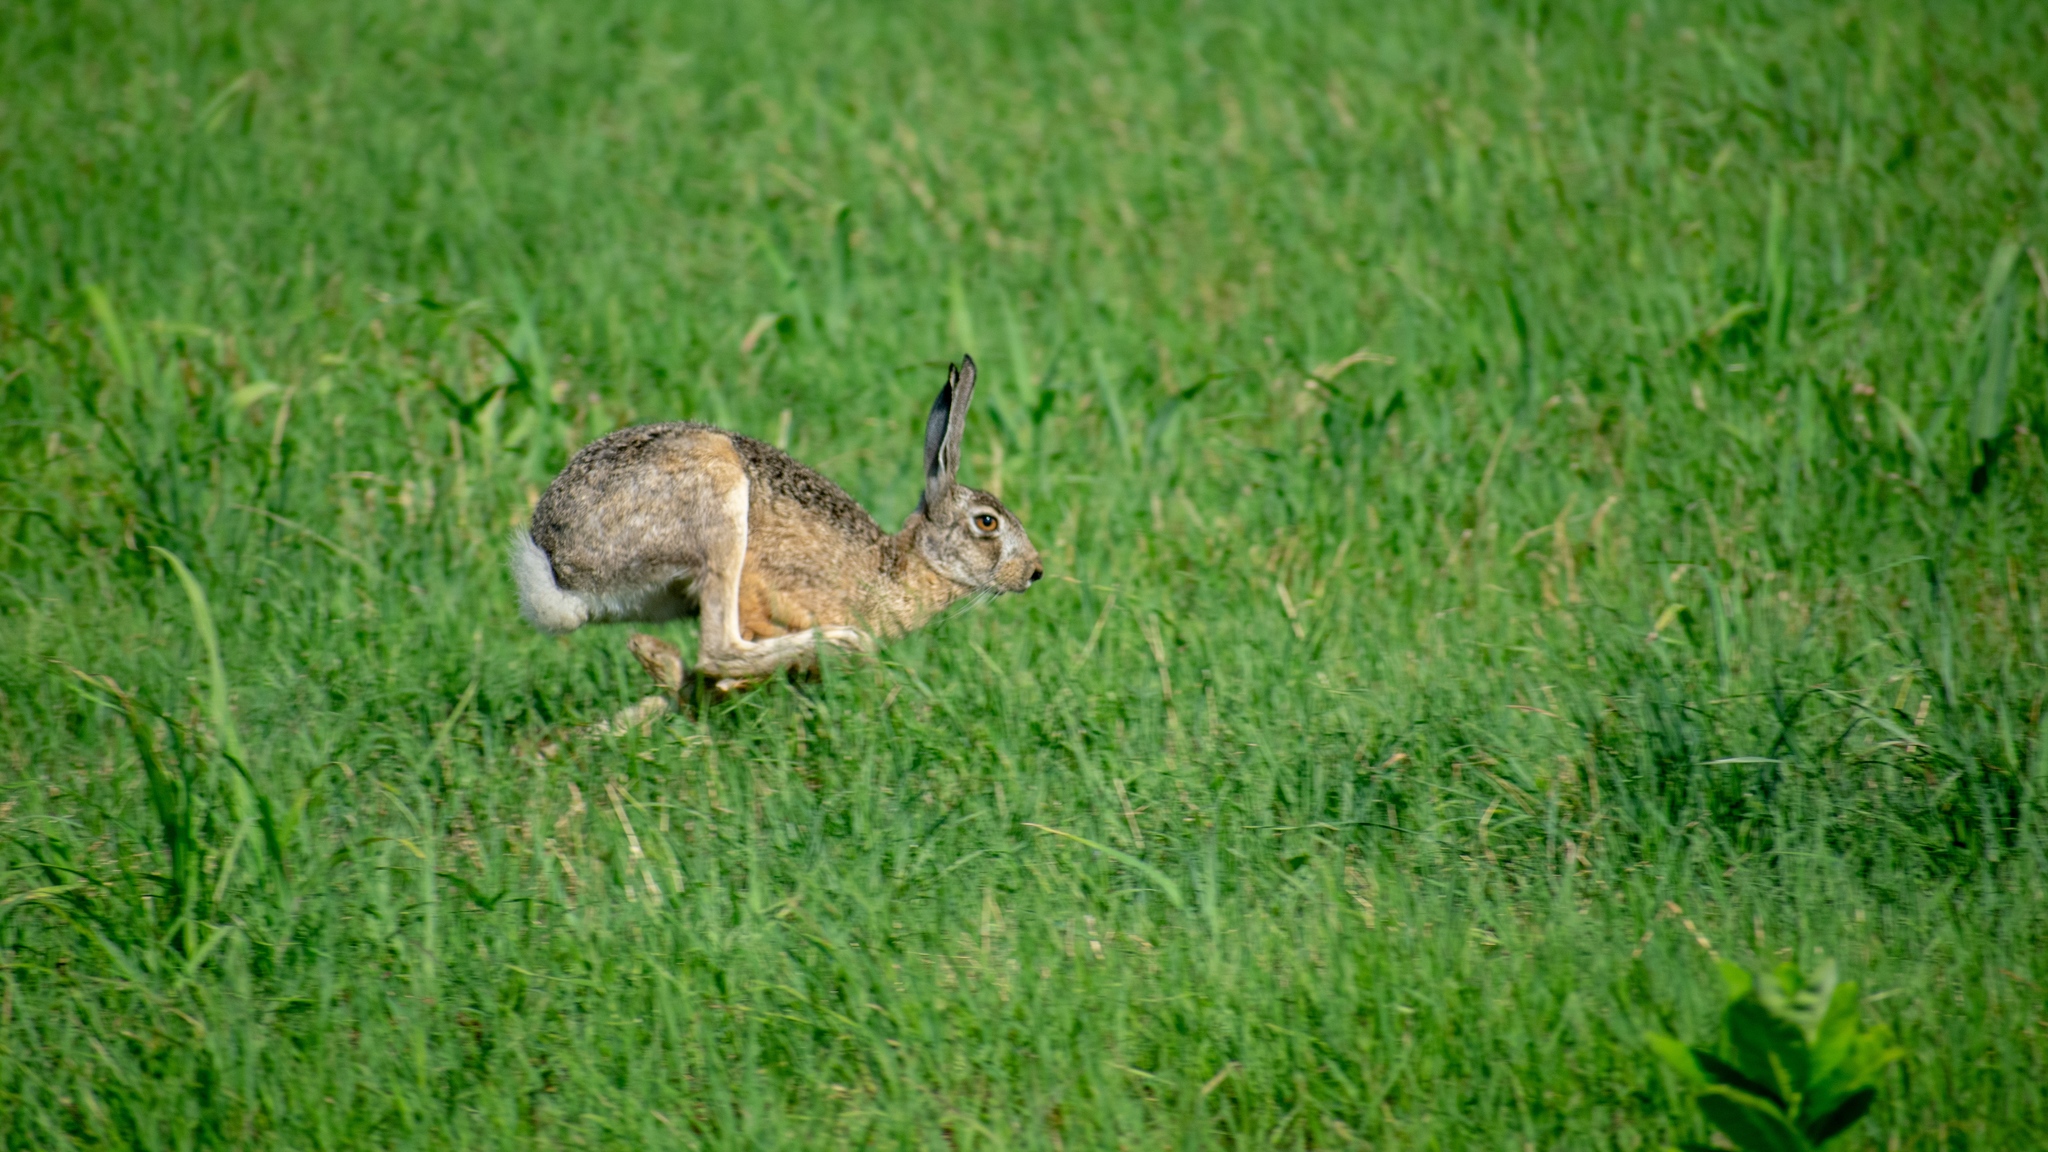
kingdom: Animalia
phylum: Chordata
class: Mammalia
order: Lagomorpha
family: Leporidae
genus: Lepus
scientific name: Lepus europaeus
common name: European hare
